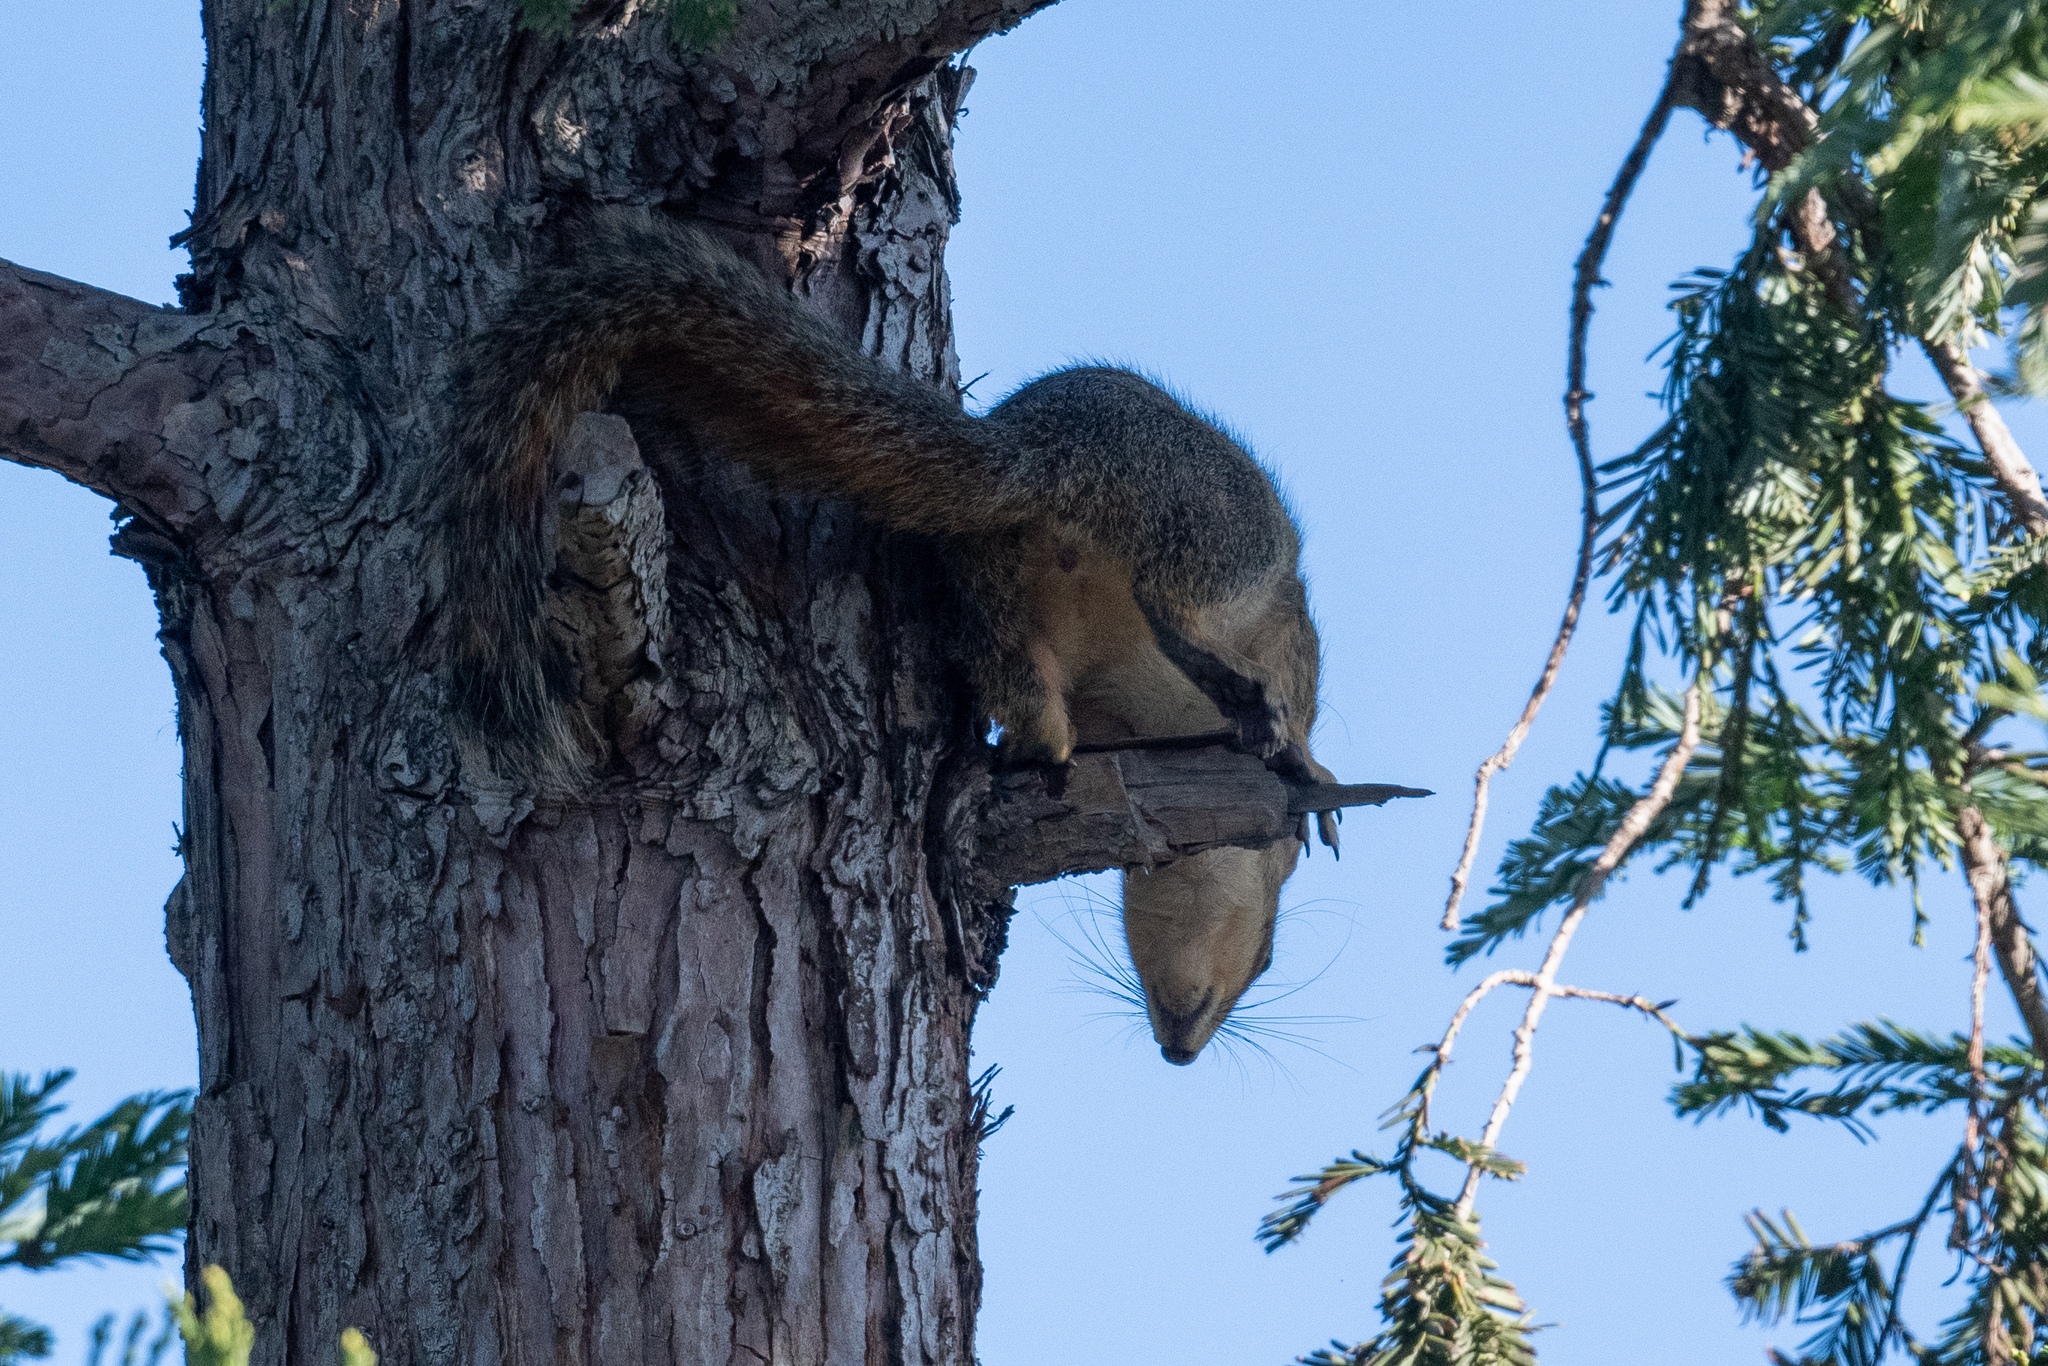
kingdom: Animalia
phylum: Chordata
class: Mammalia
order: Rodentia
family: Sciuridae
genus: Sciurus
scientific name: Sciurus niger
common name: Fox squirrel
